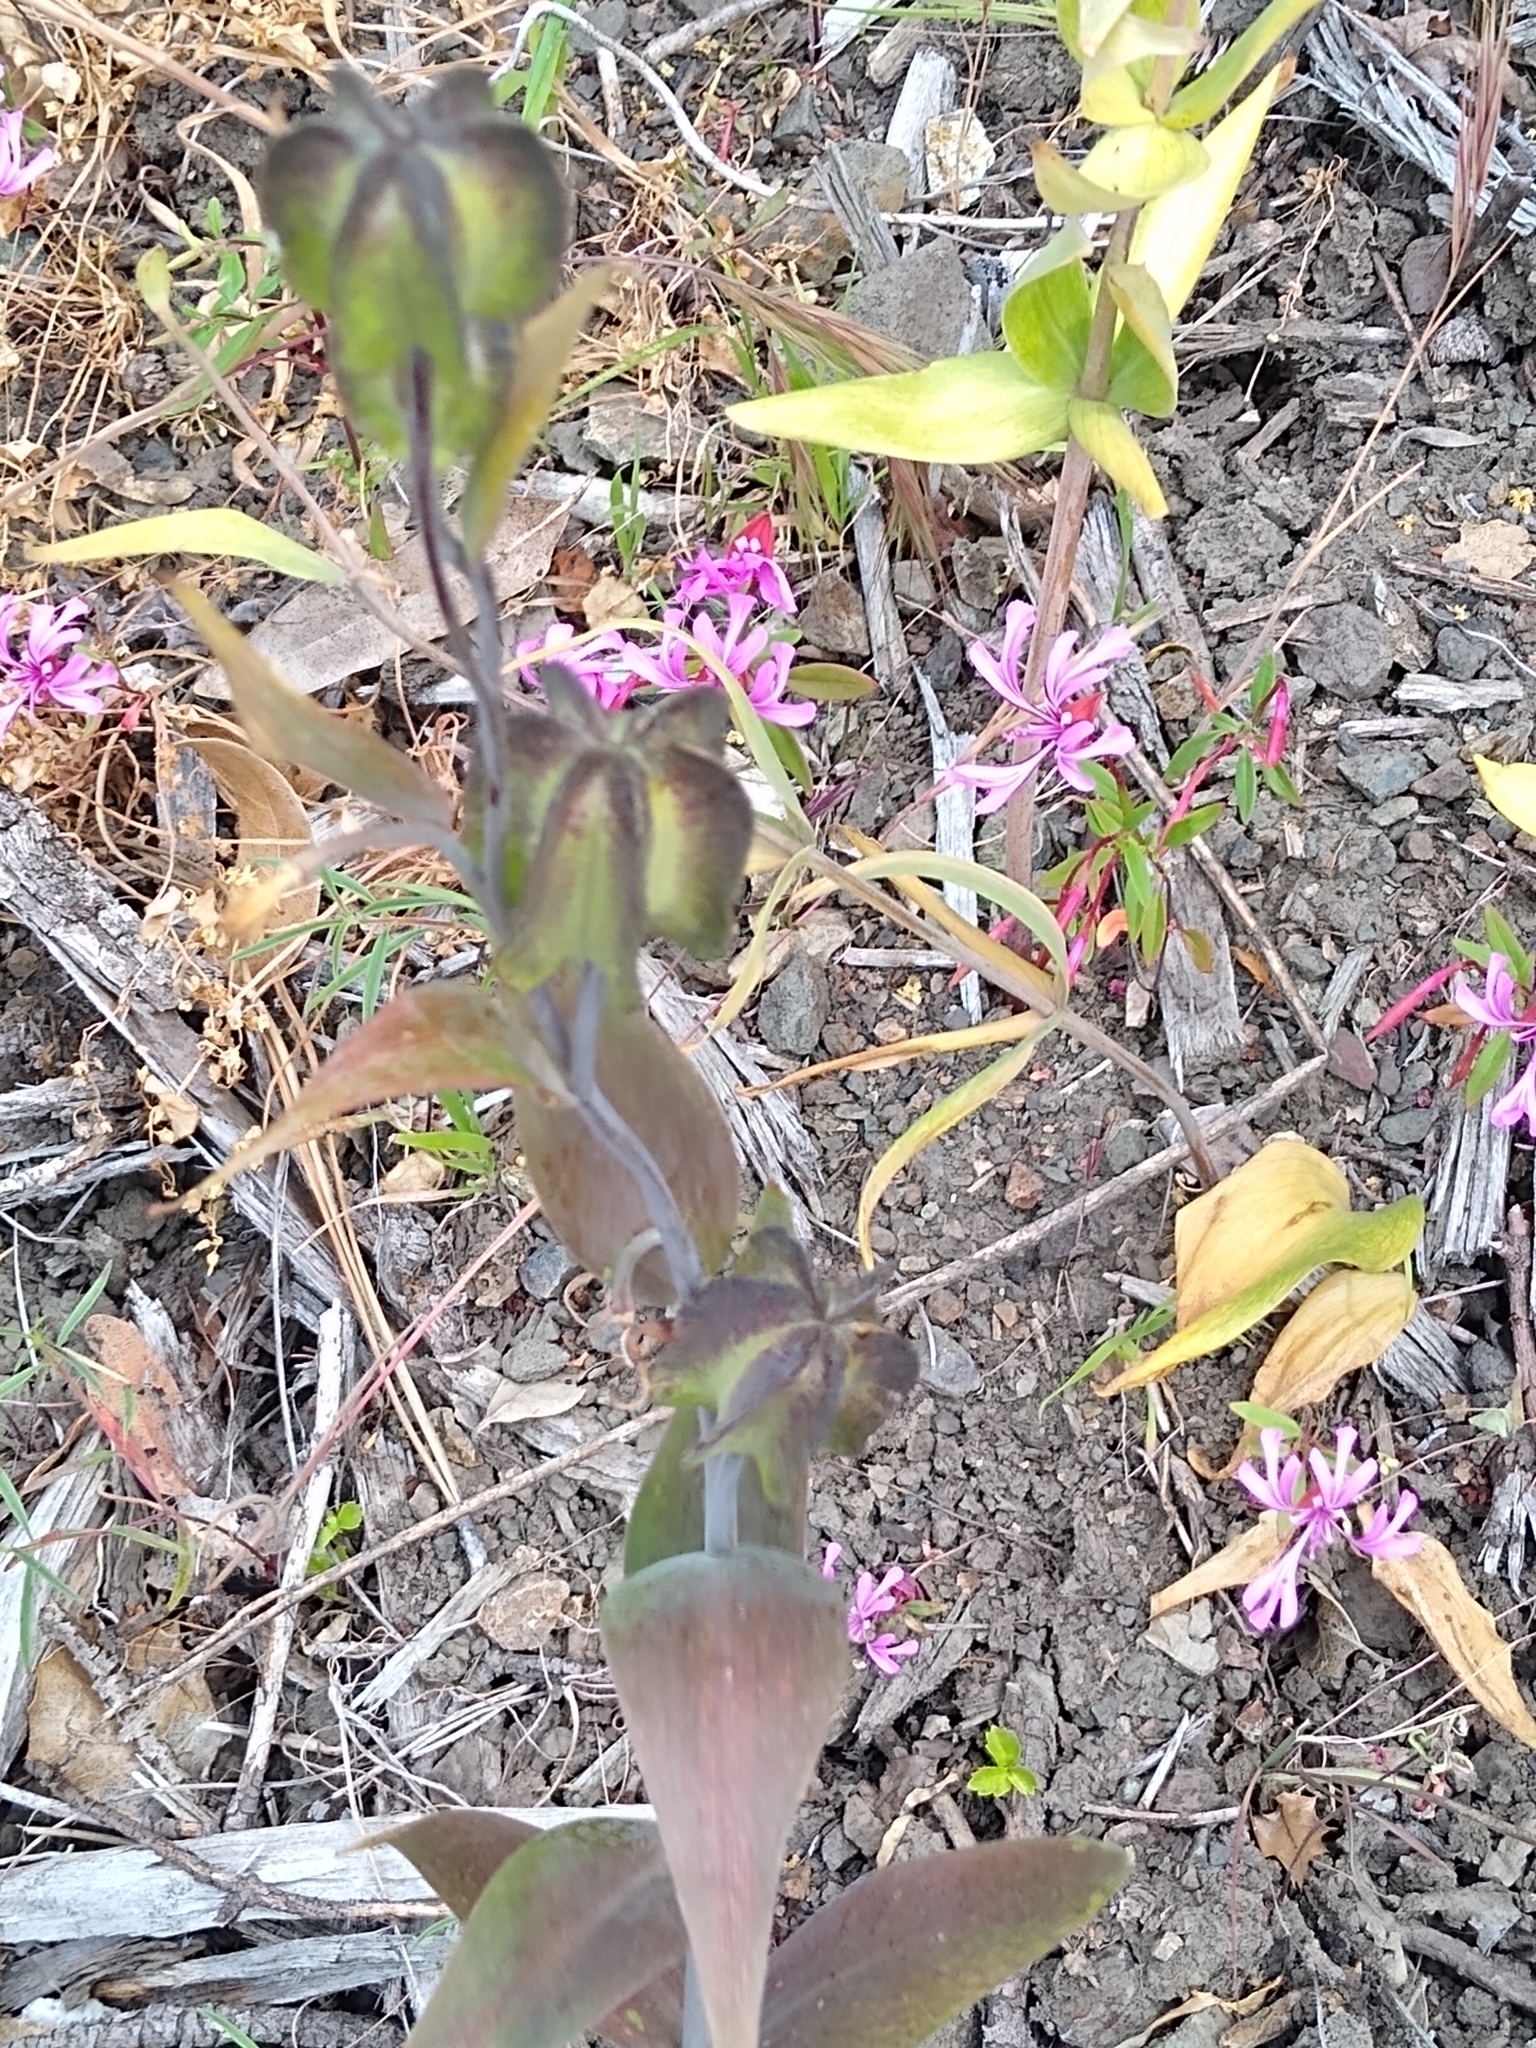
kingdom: Plantae
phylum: Tracheophyta
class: Liliopsida
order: Liliales
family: Liliaceae
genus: Fritillaria
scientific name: Fritillaria affinis
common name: Ojai fritillary
